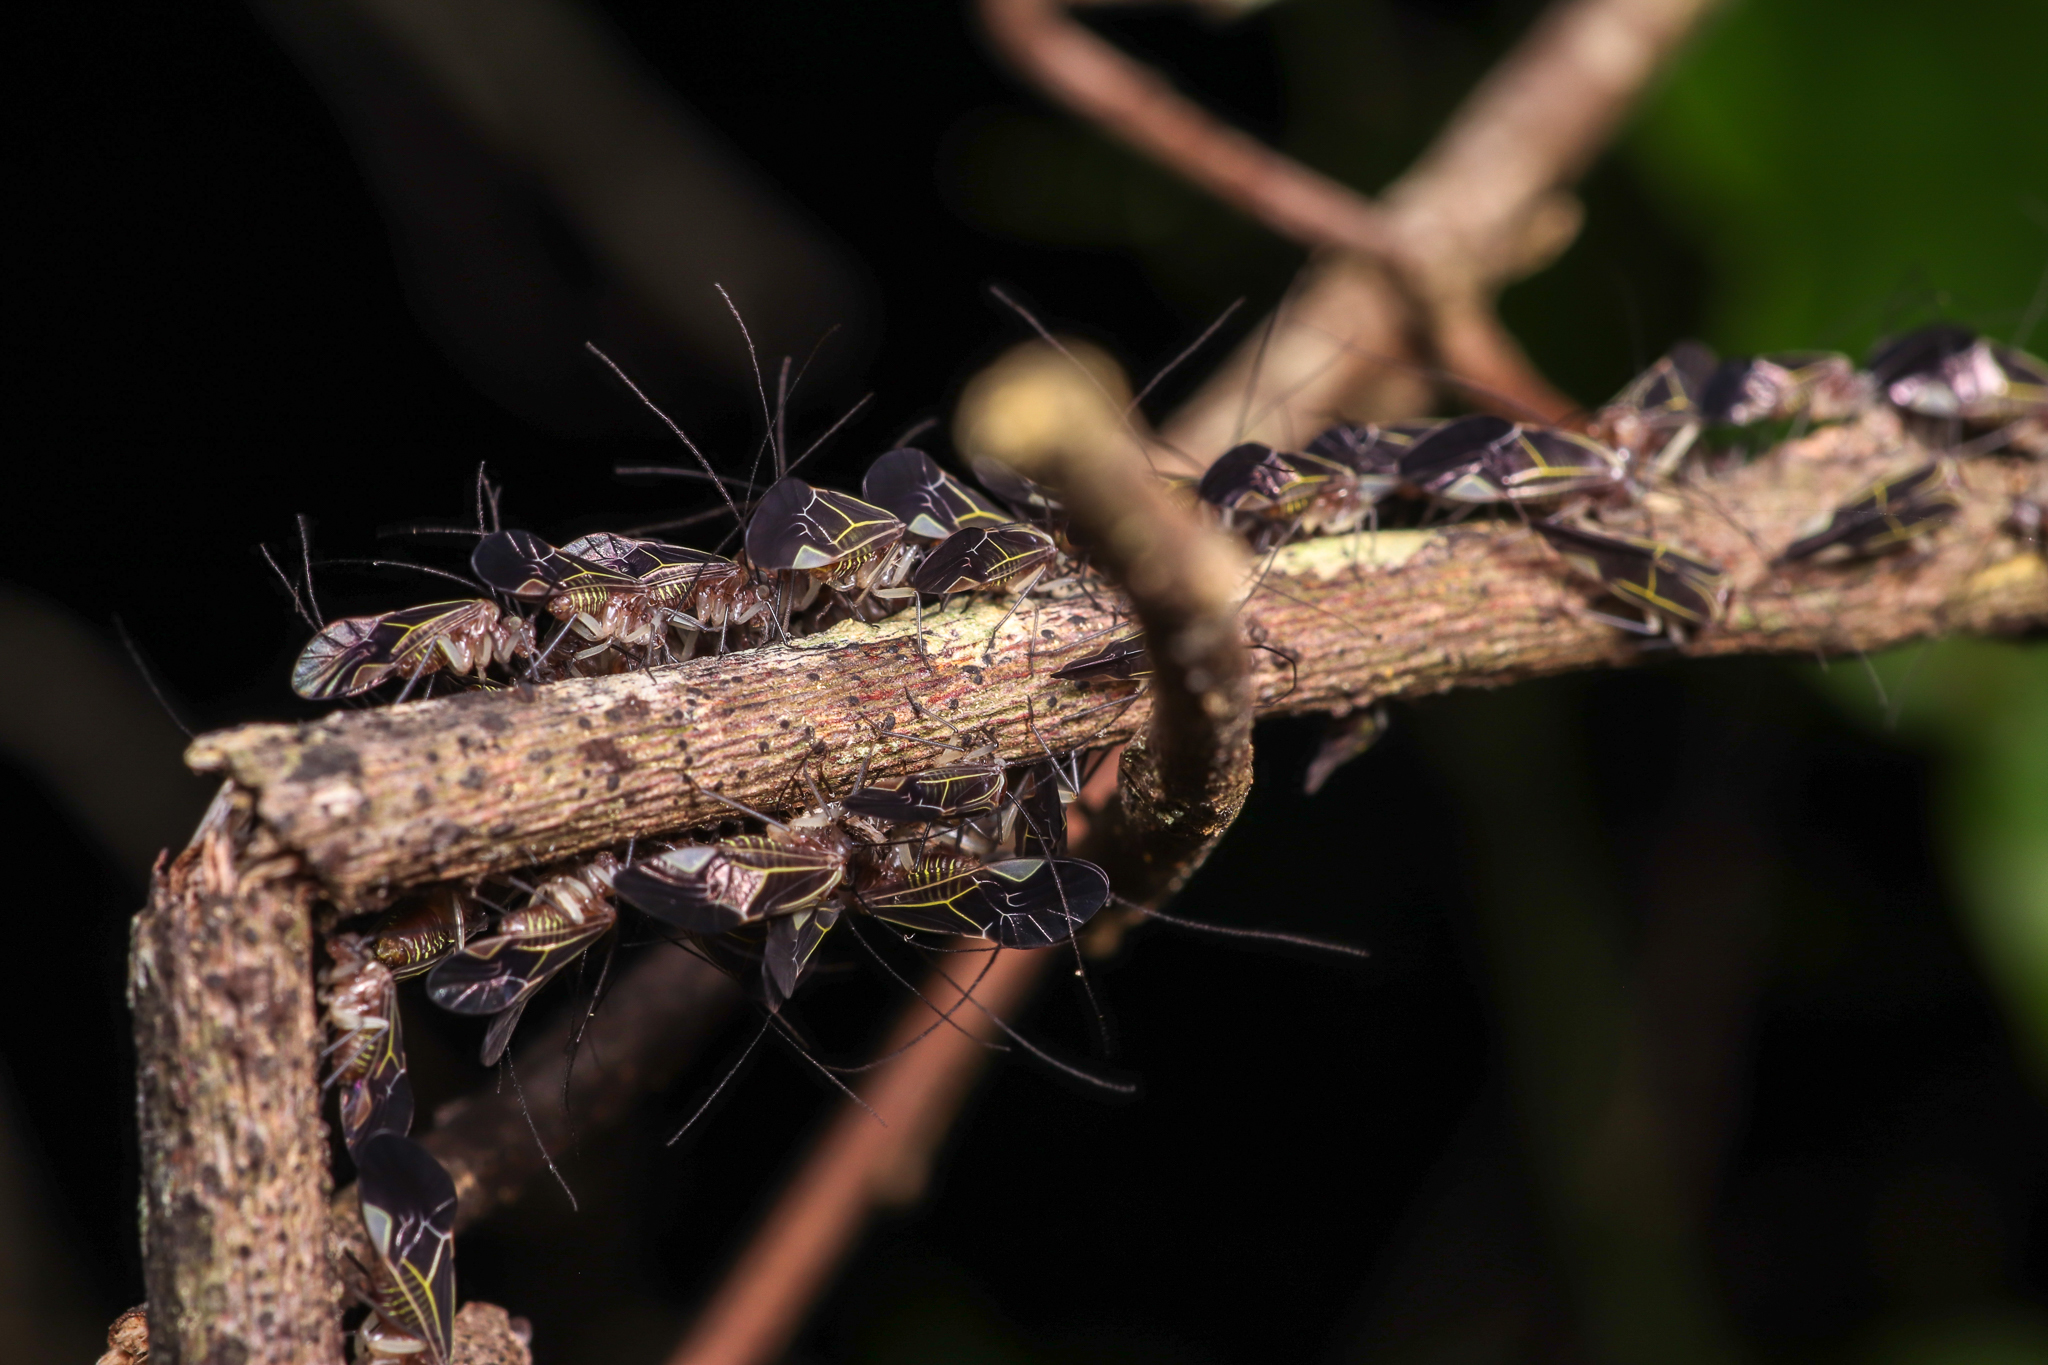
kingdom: Animalia
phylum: Arthropoda
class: Insecta
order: Psocodea
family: Psocidae
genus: Cerastipsocus
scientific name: Cerastipsocus venosus
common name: Tree cattle
